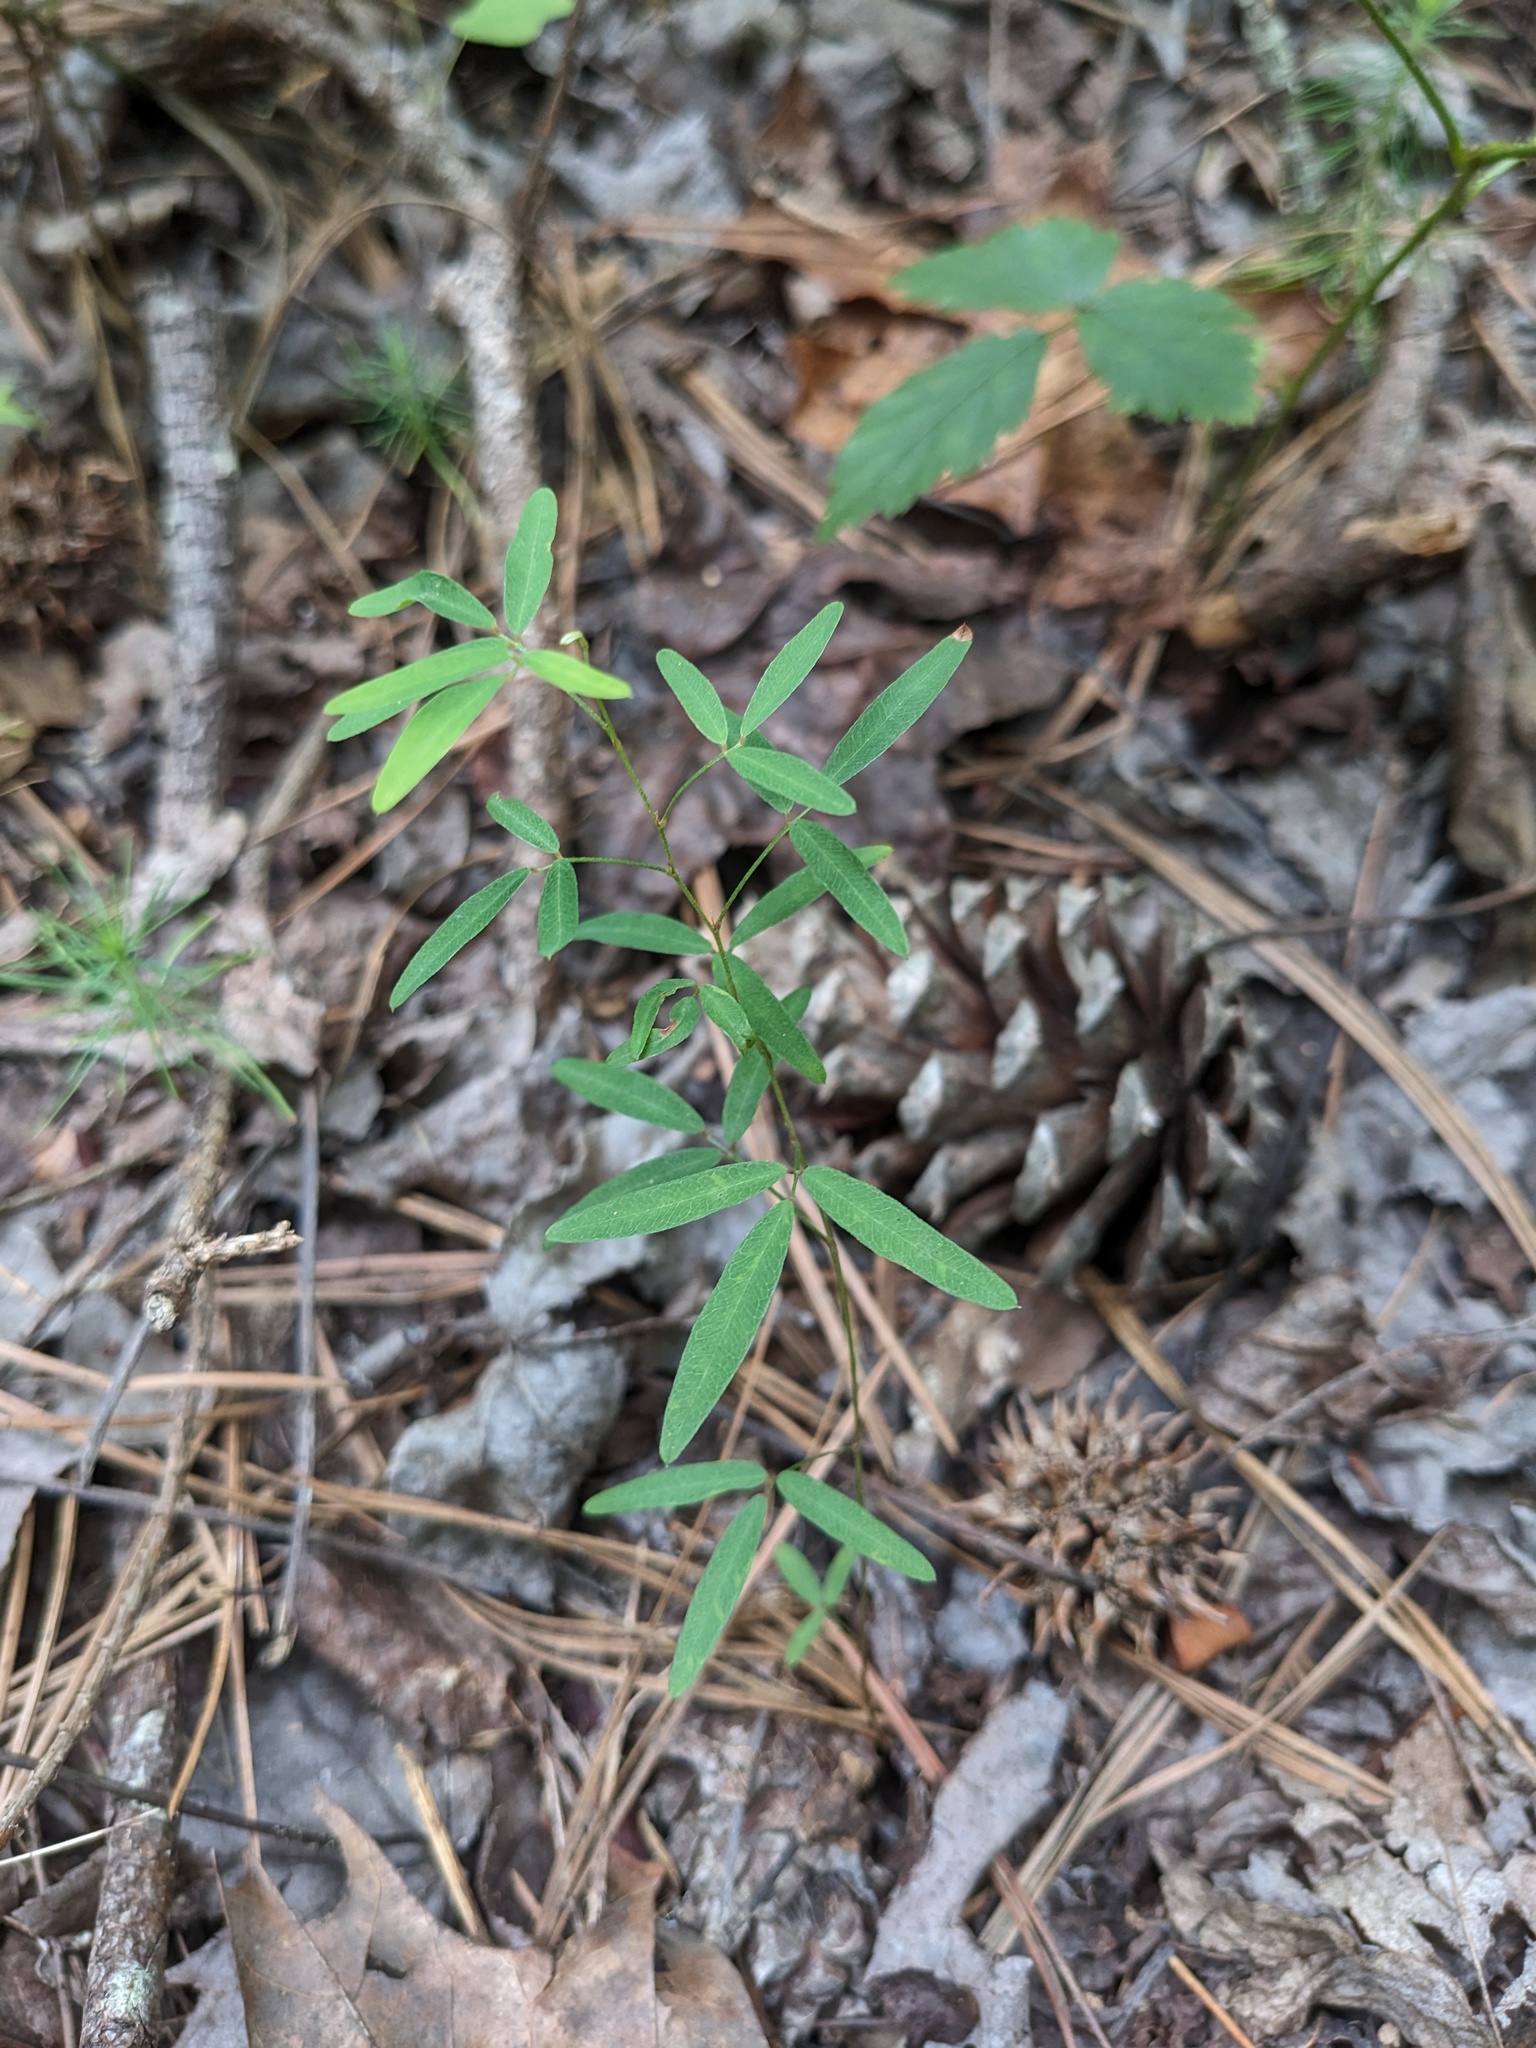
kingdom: Plantae
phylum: Tracheophyta
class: Magnoliopsida
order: Fabales
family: Fabaceae
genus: Lespedeza
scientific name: Lespedeza virginica
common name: Slender bush-clover
